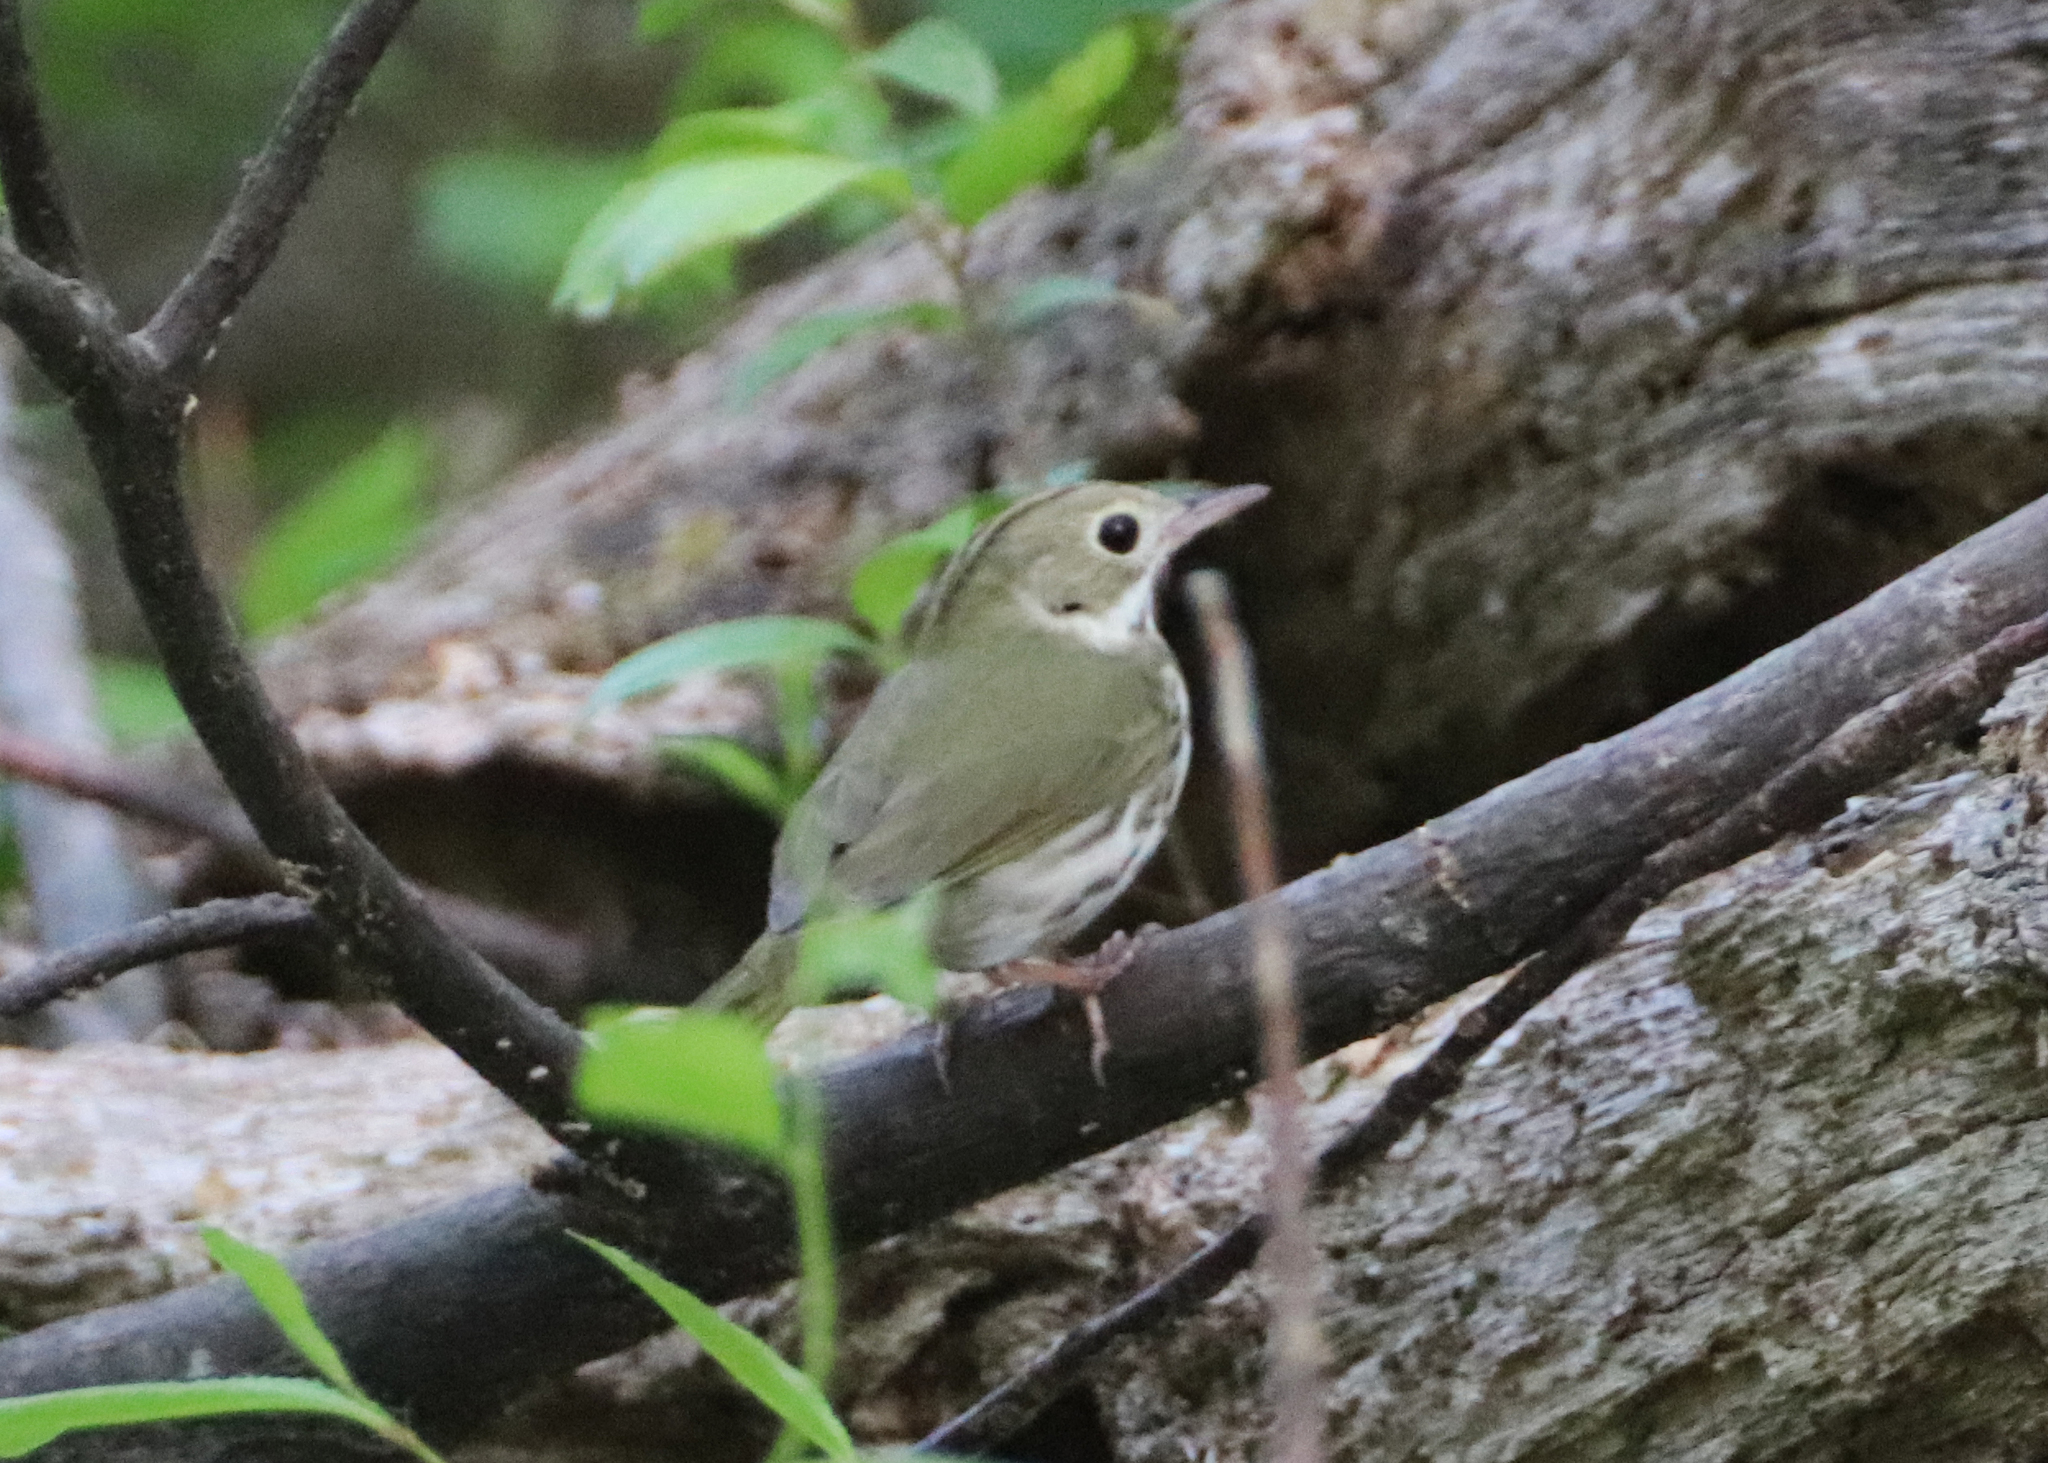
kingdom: Animalia
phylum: Chordata
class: Aves
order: Passeriformes
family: Parulidae
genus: Seiurus
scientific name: Seiurus aurocapilla
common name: Ovenbird
